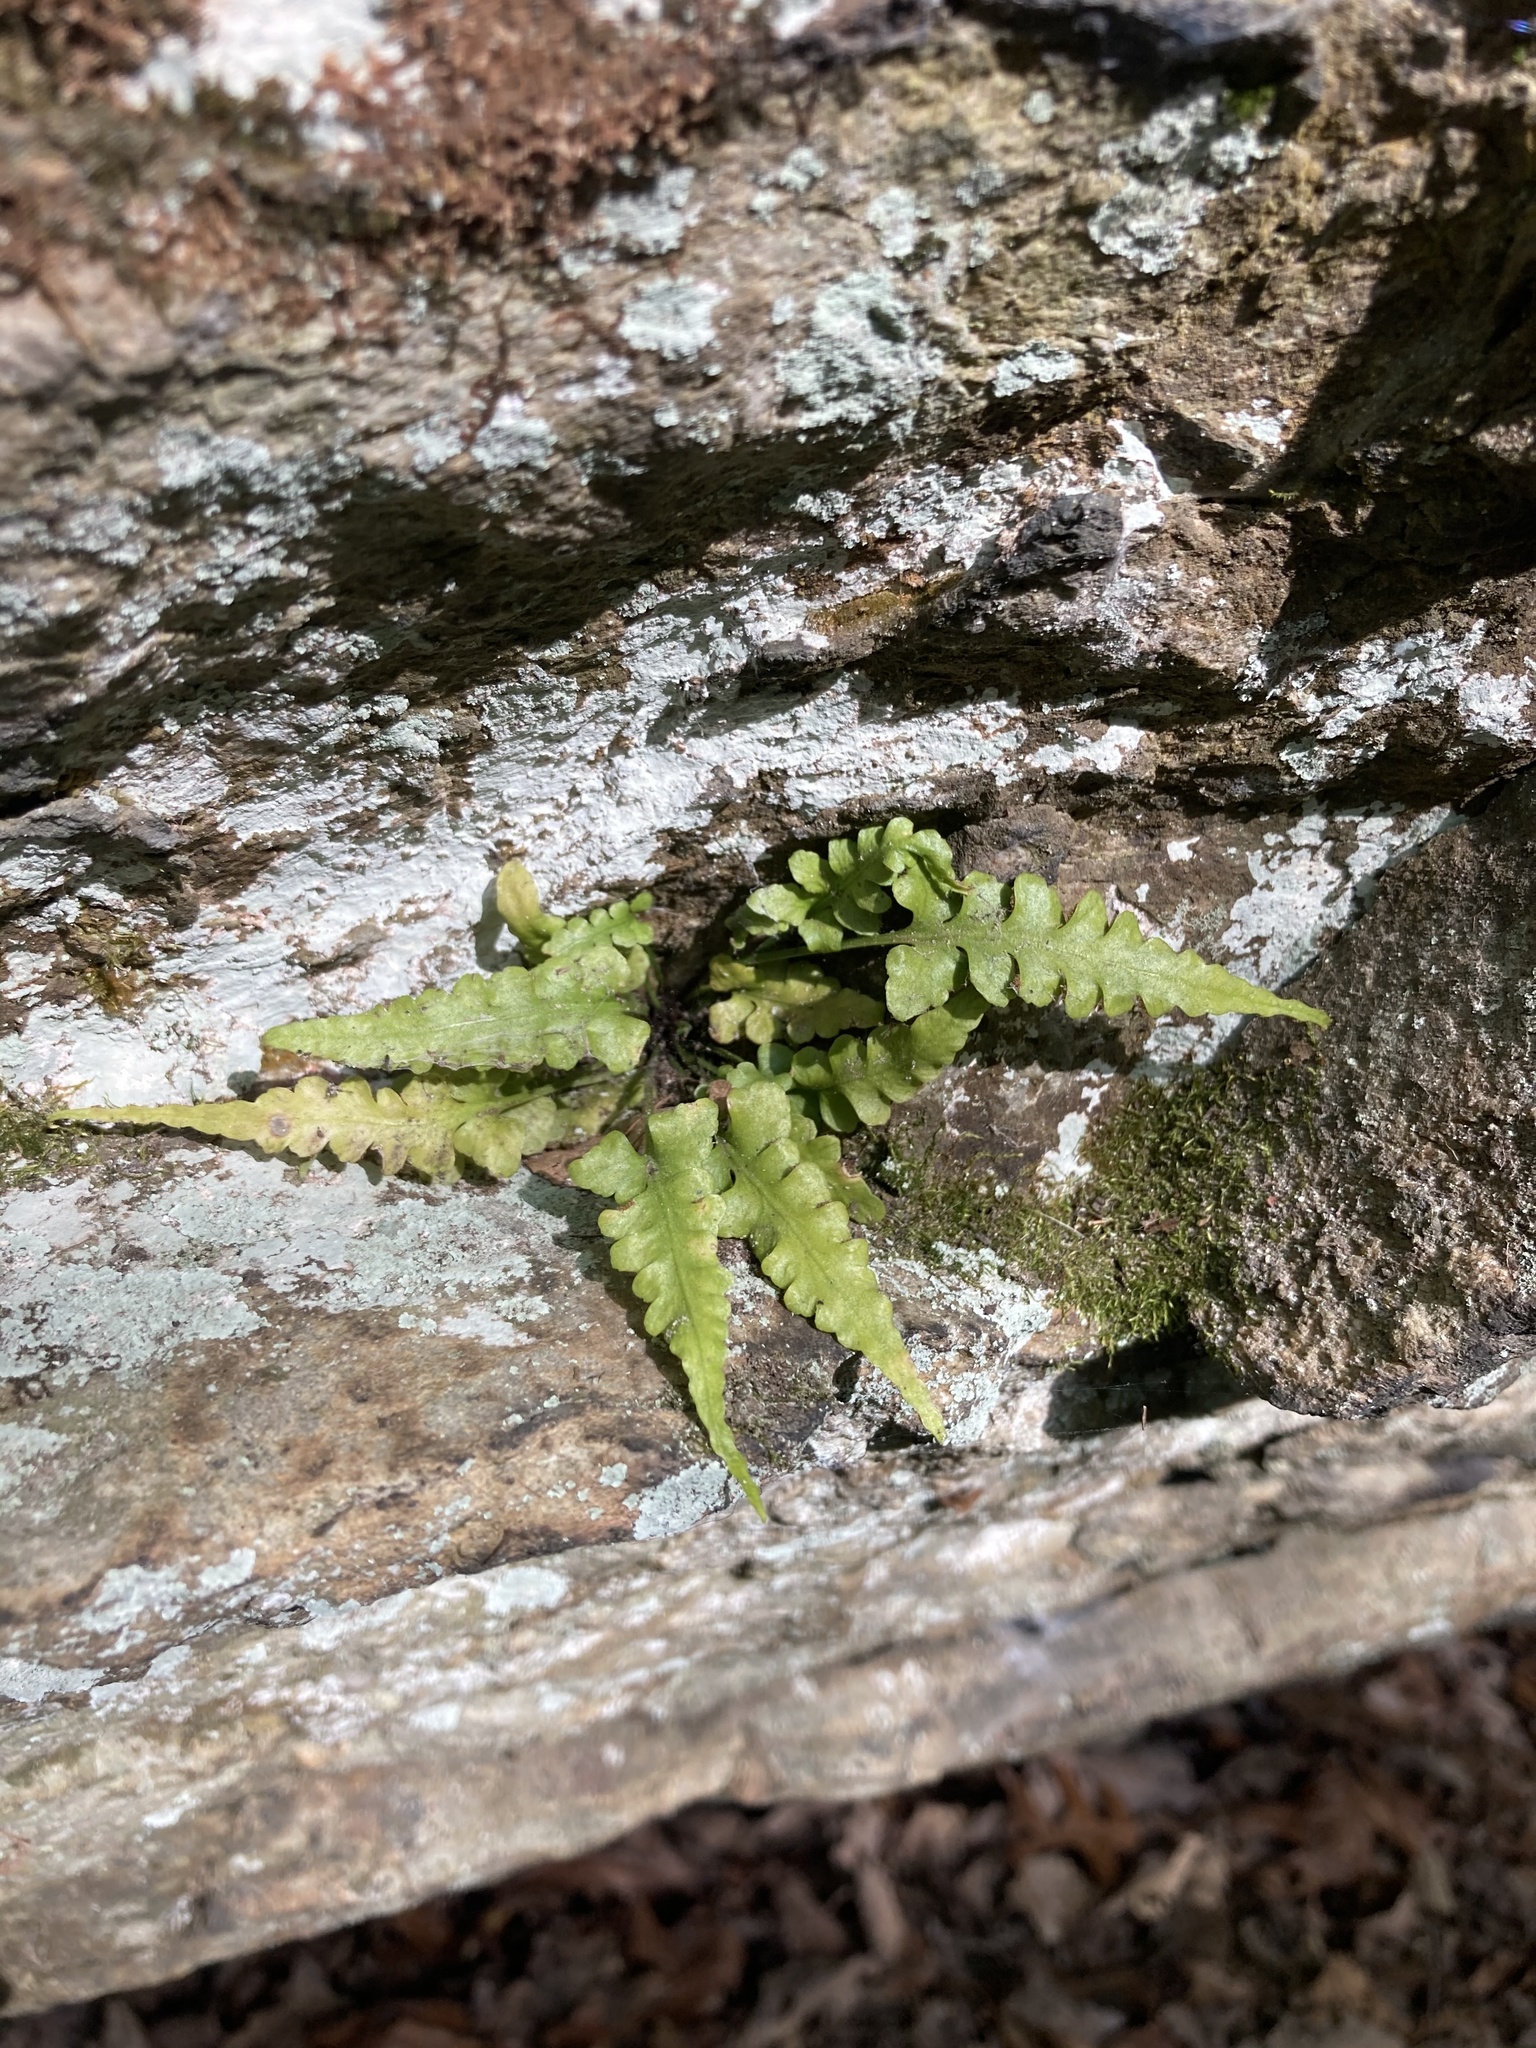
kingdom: Plantae
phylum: Tracheophyta
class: Polypodiopsida
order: Polypodiales
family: Aspleniaceae
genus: Asplenium
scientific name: Asplenium pinnatifidum
